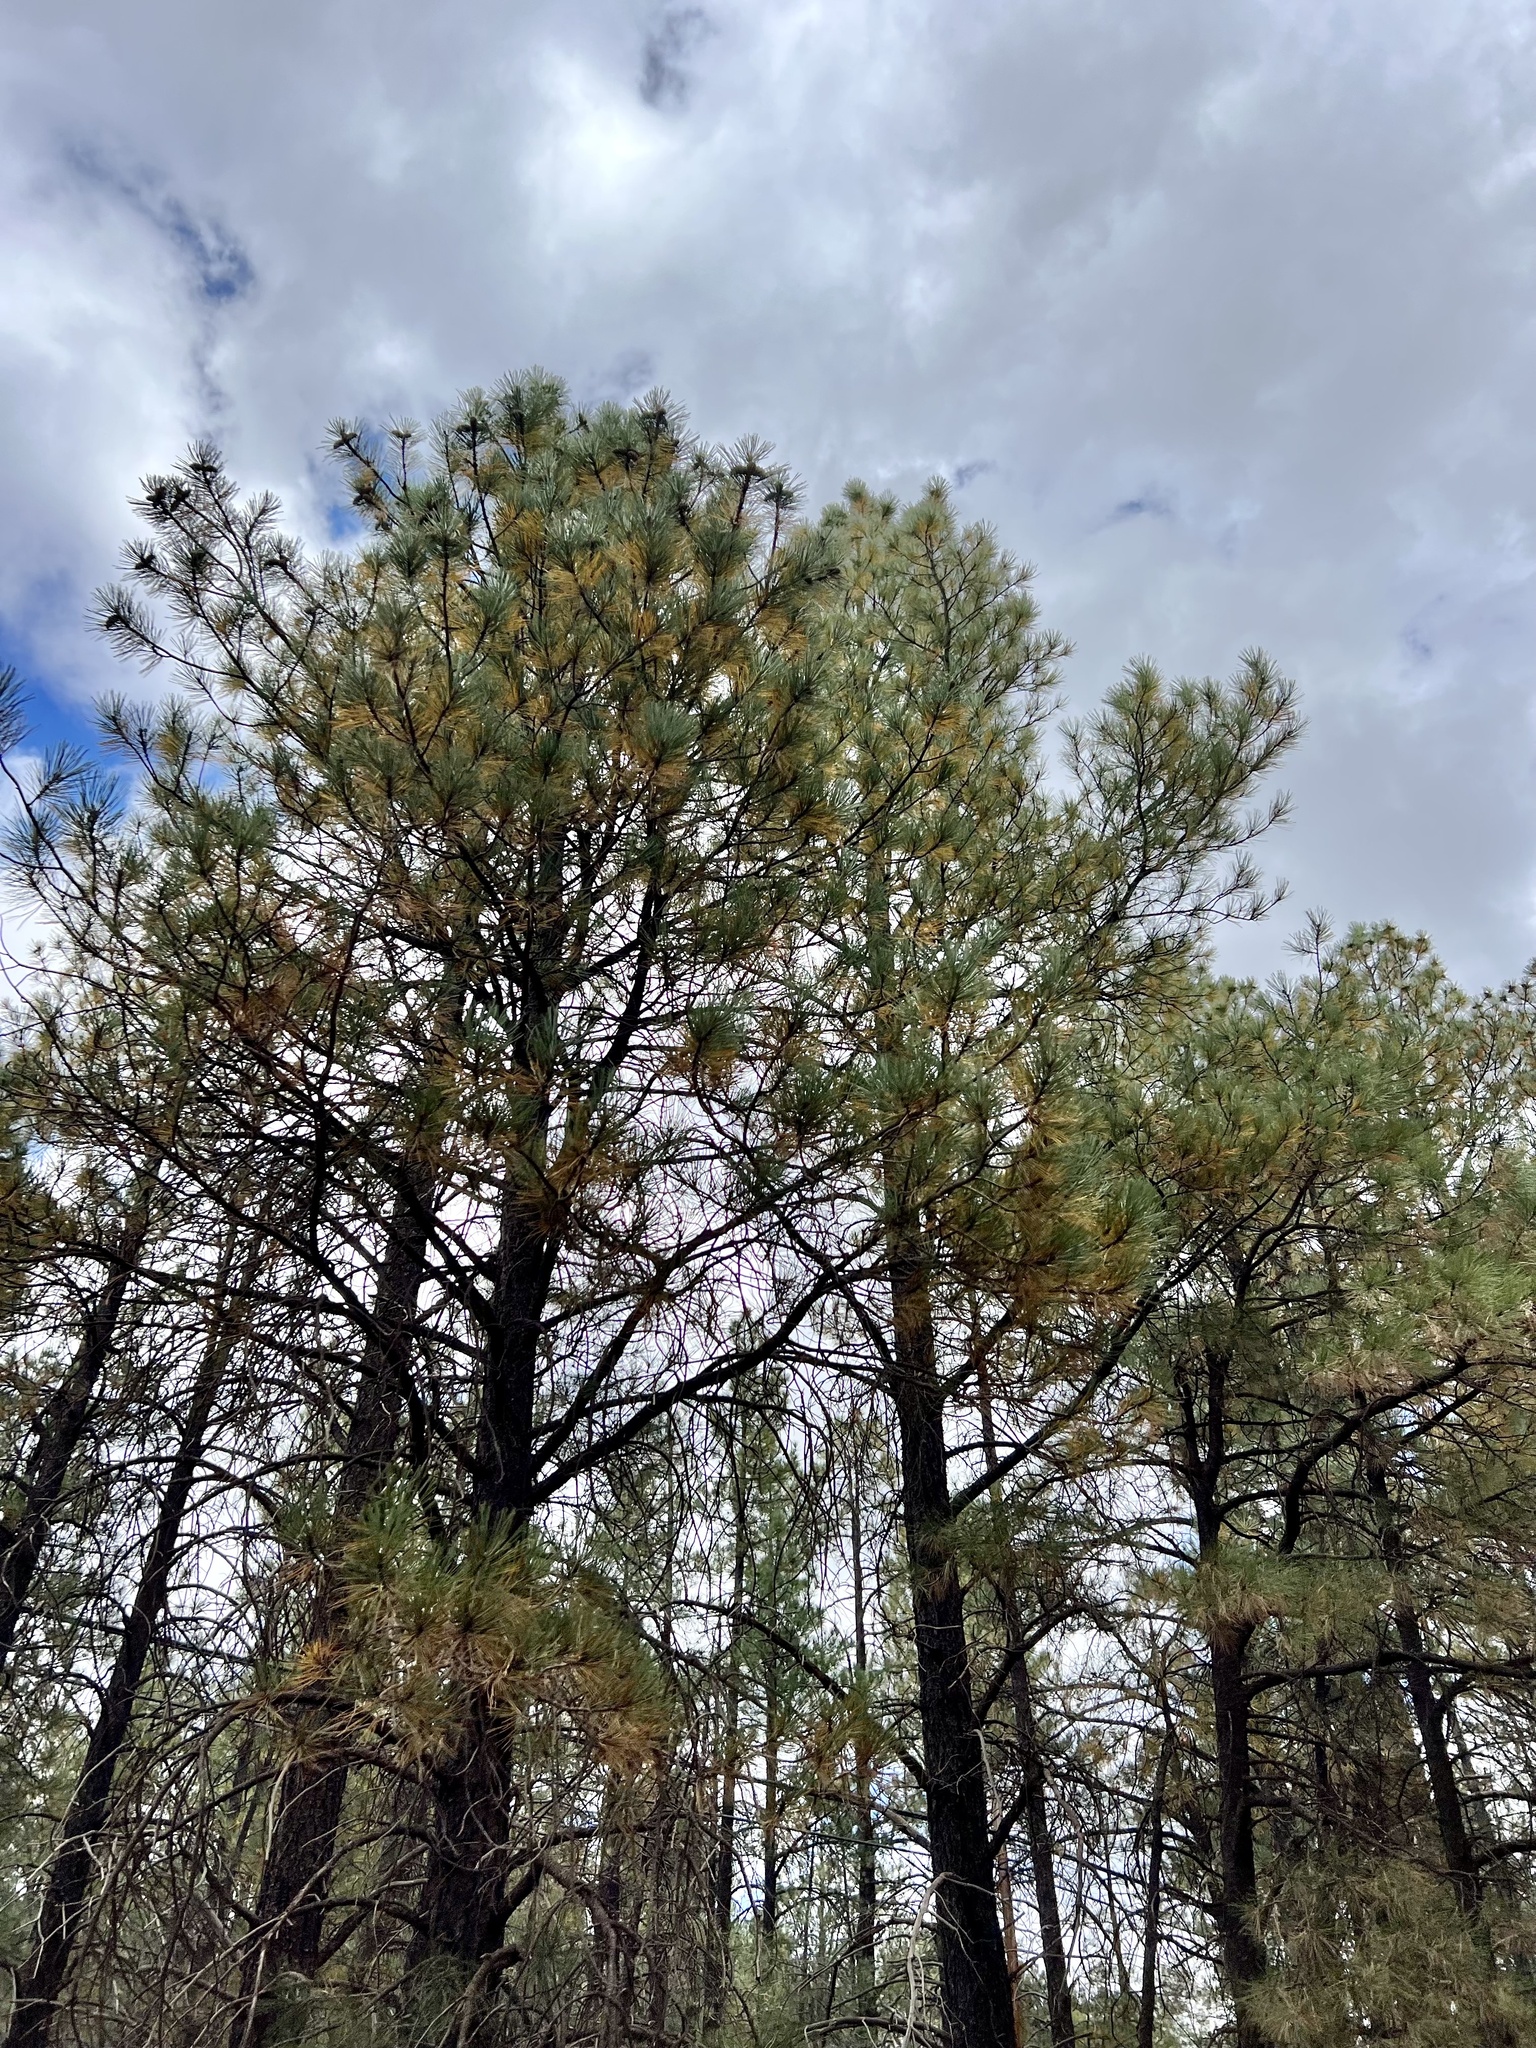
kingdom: Plantae
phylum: Tracheophyta
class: Pinopsida
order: Pinales
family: Pinaceae
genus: Pinus
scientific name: Pinus ponderosa
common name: Western yellow-pine
